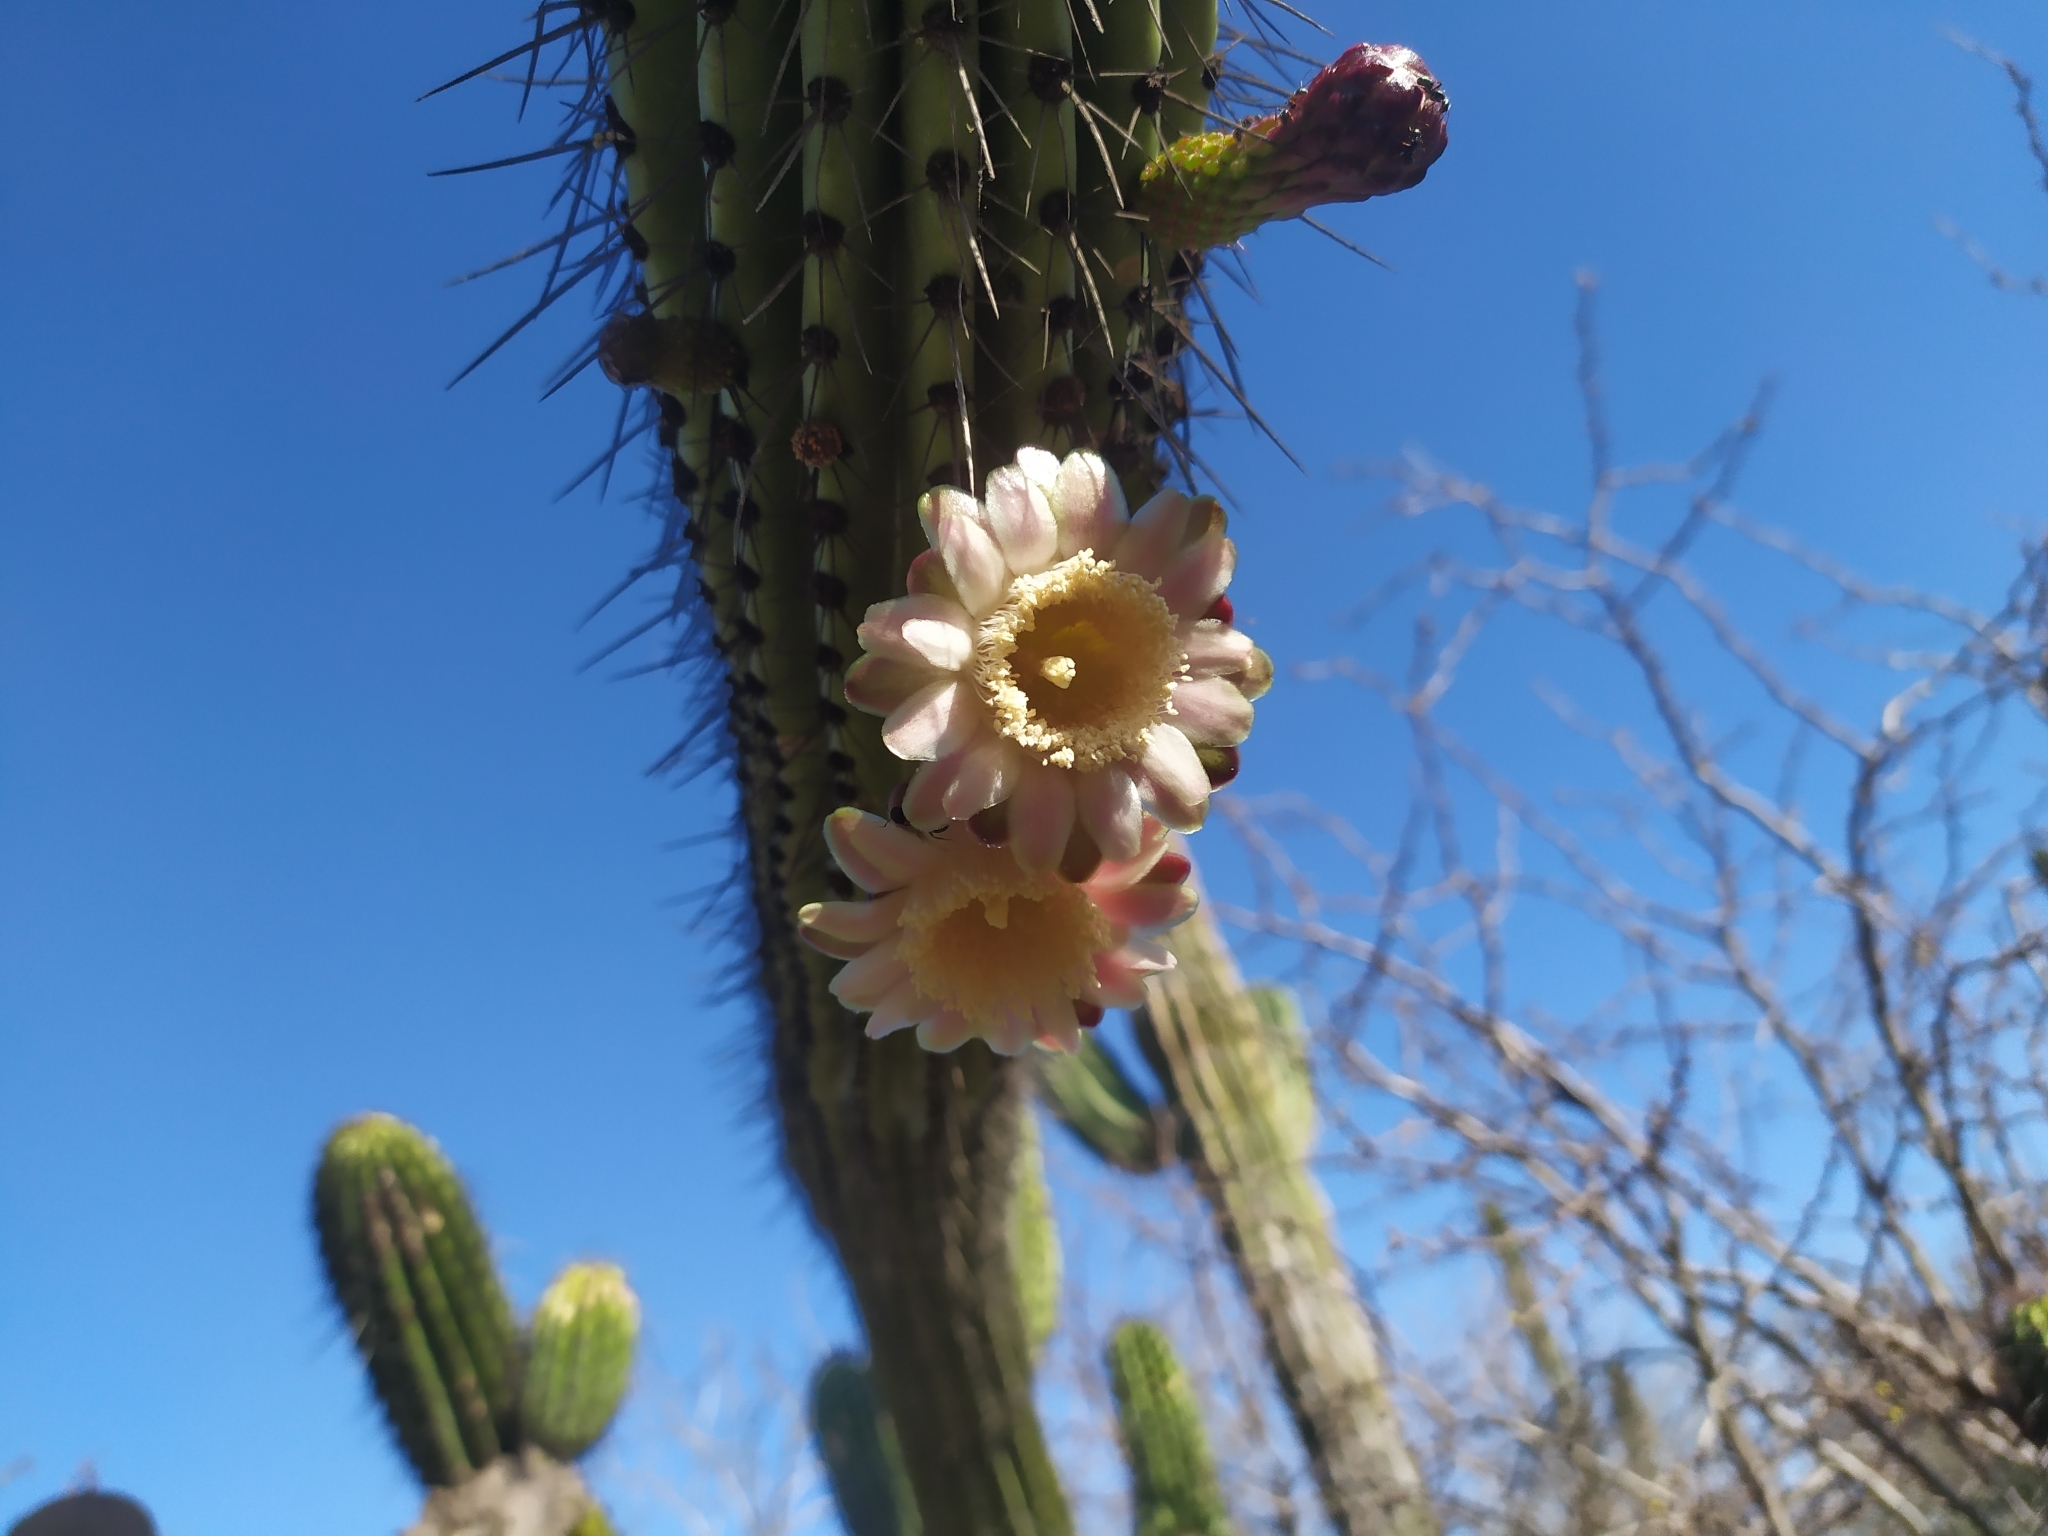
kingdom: Plantae
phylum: Tracheophyta
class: Magnoliopsida
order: Caryophyllales
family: Cactaceae
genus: Stenocereus
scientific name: Stenocereus thurberi
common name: Organ pipe cactus
